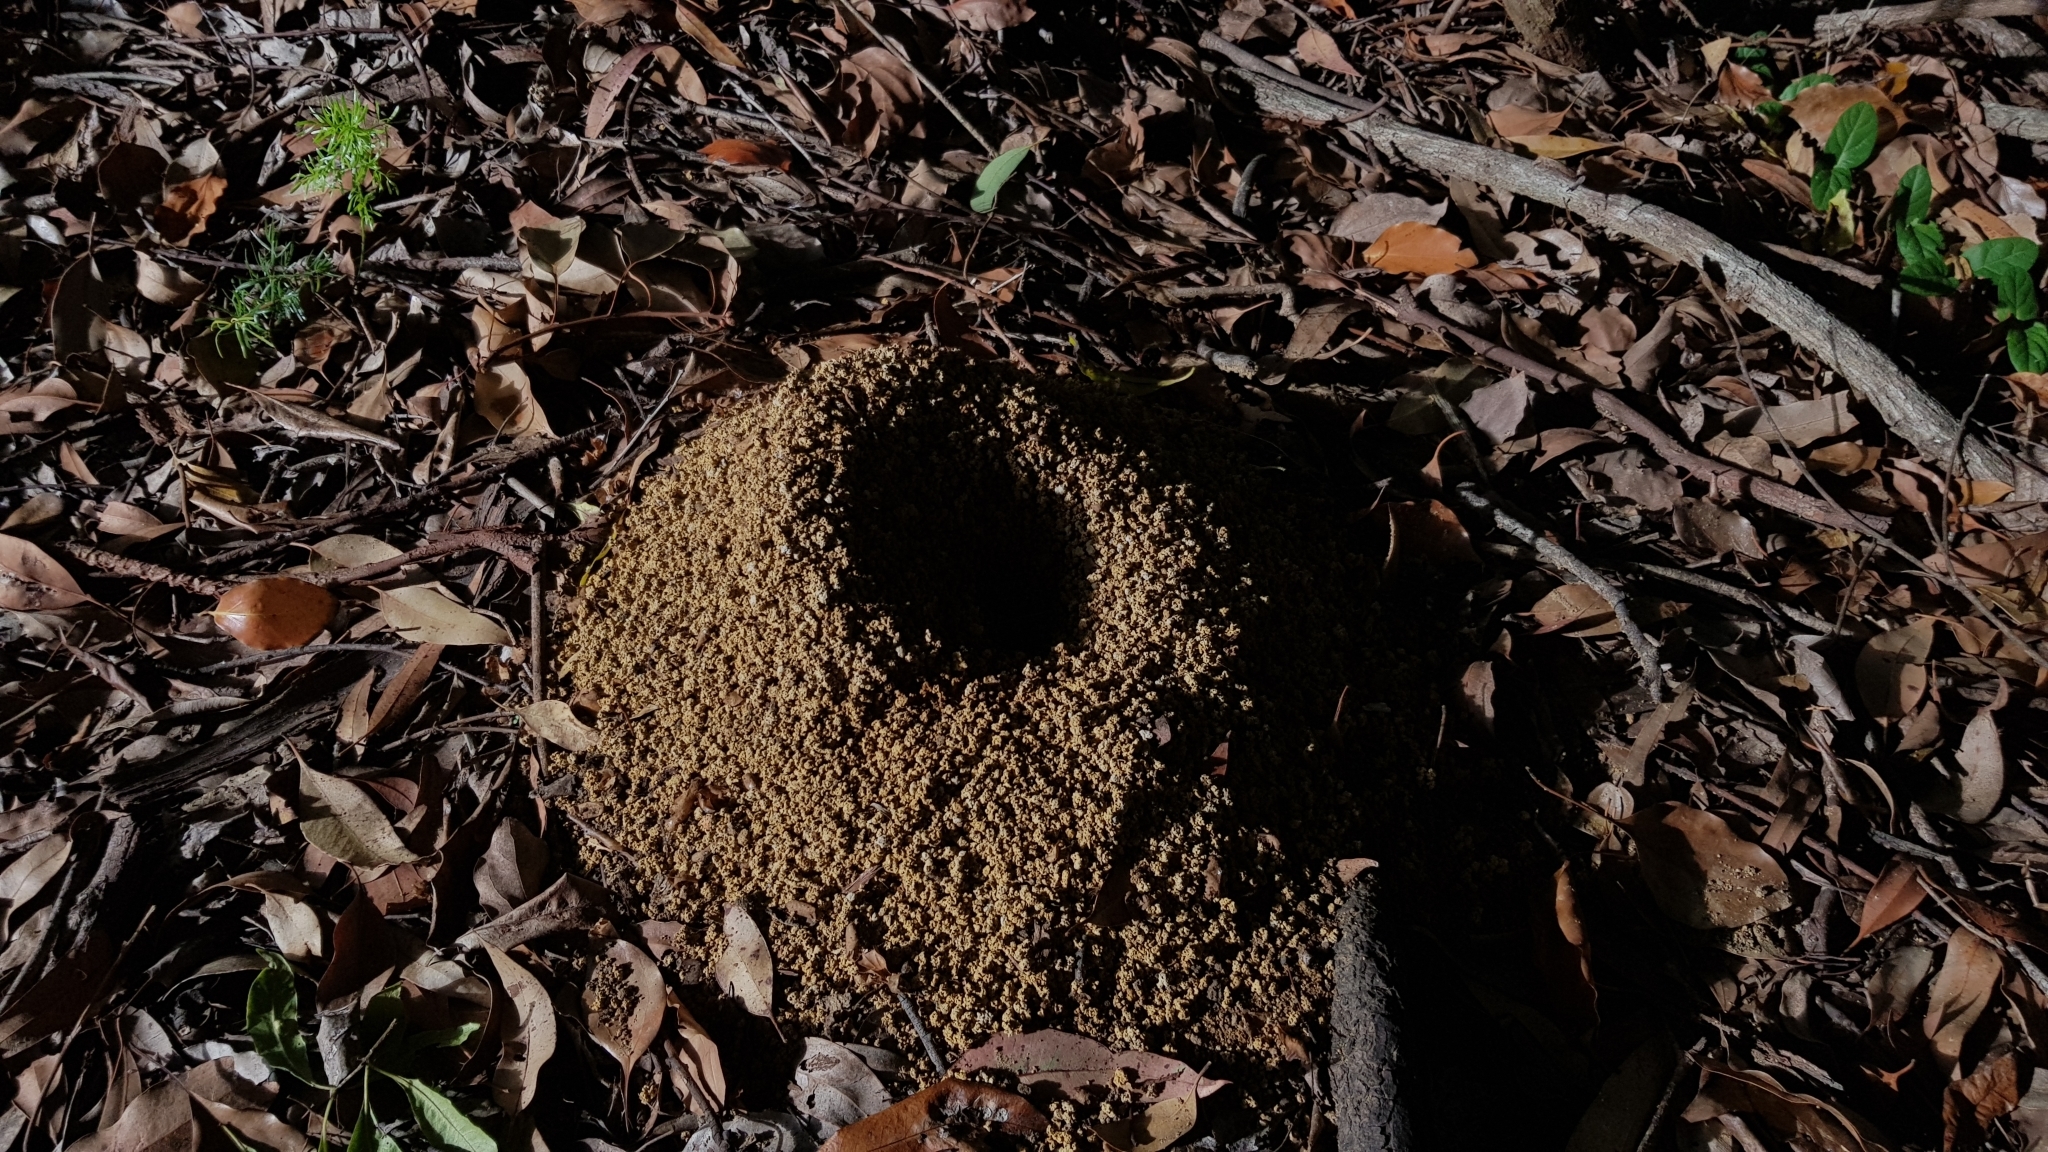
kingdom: Animalia
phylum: Arthropoda
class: Insecta
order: Hymenoptera
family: Formicidae
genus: Myrmecia
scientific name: Myrmecia brevinoda
